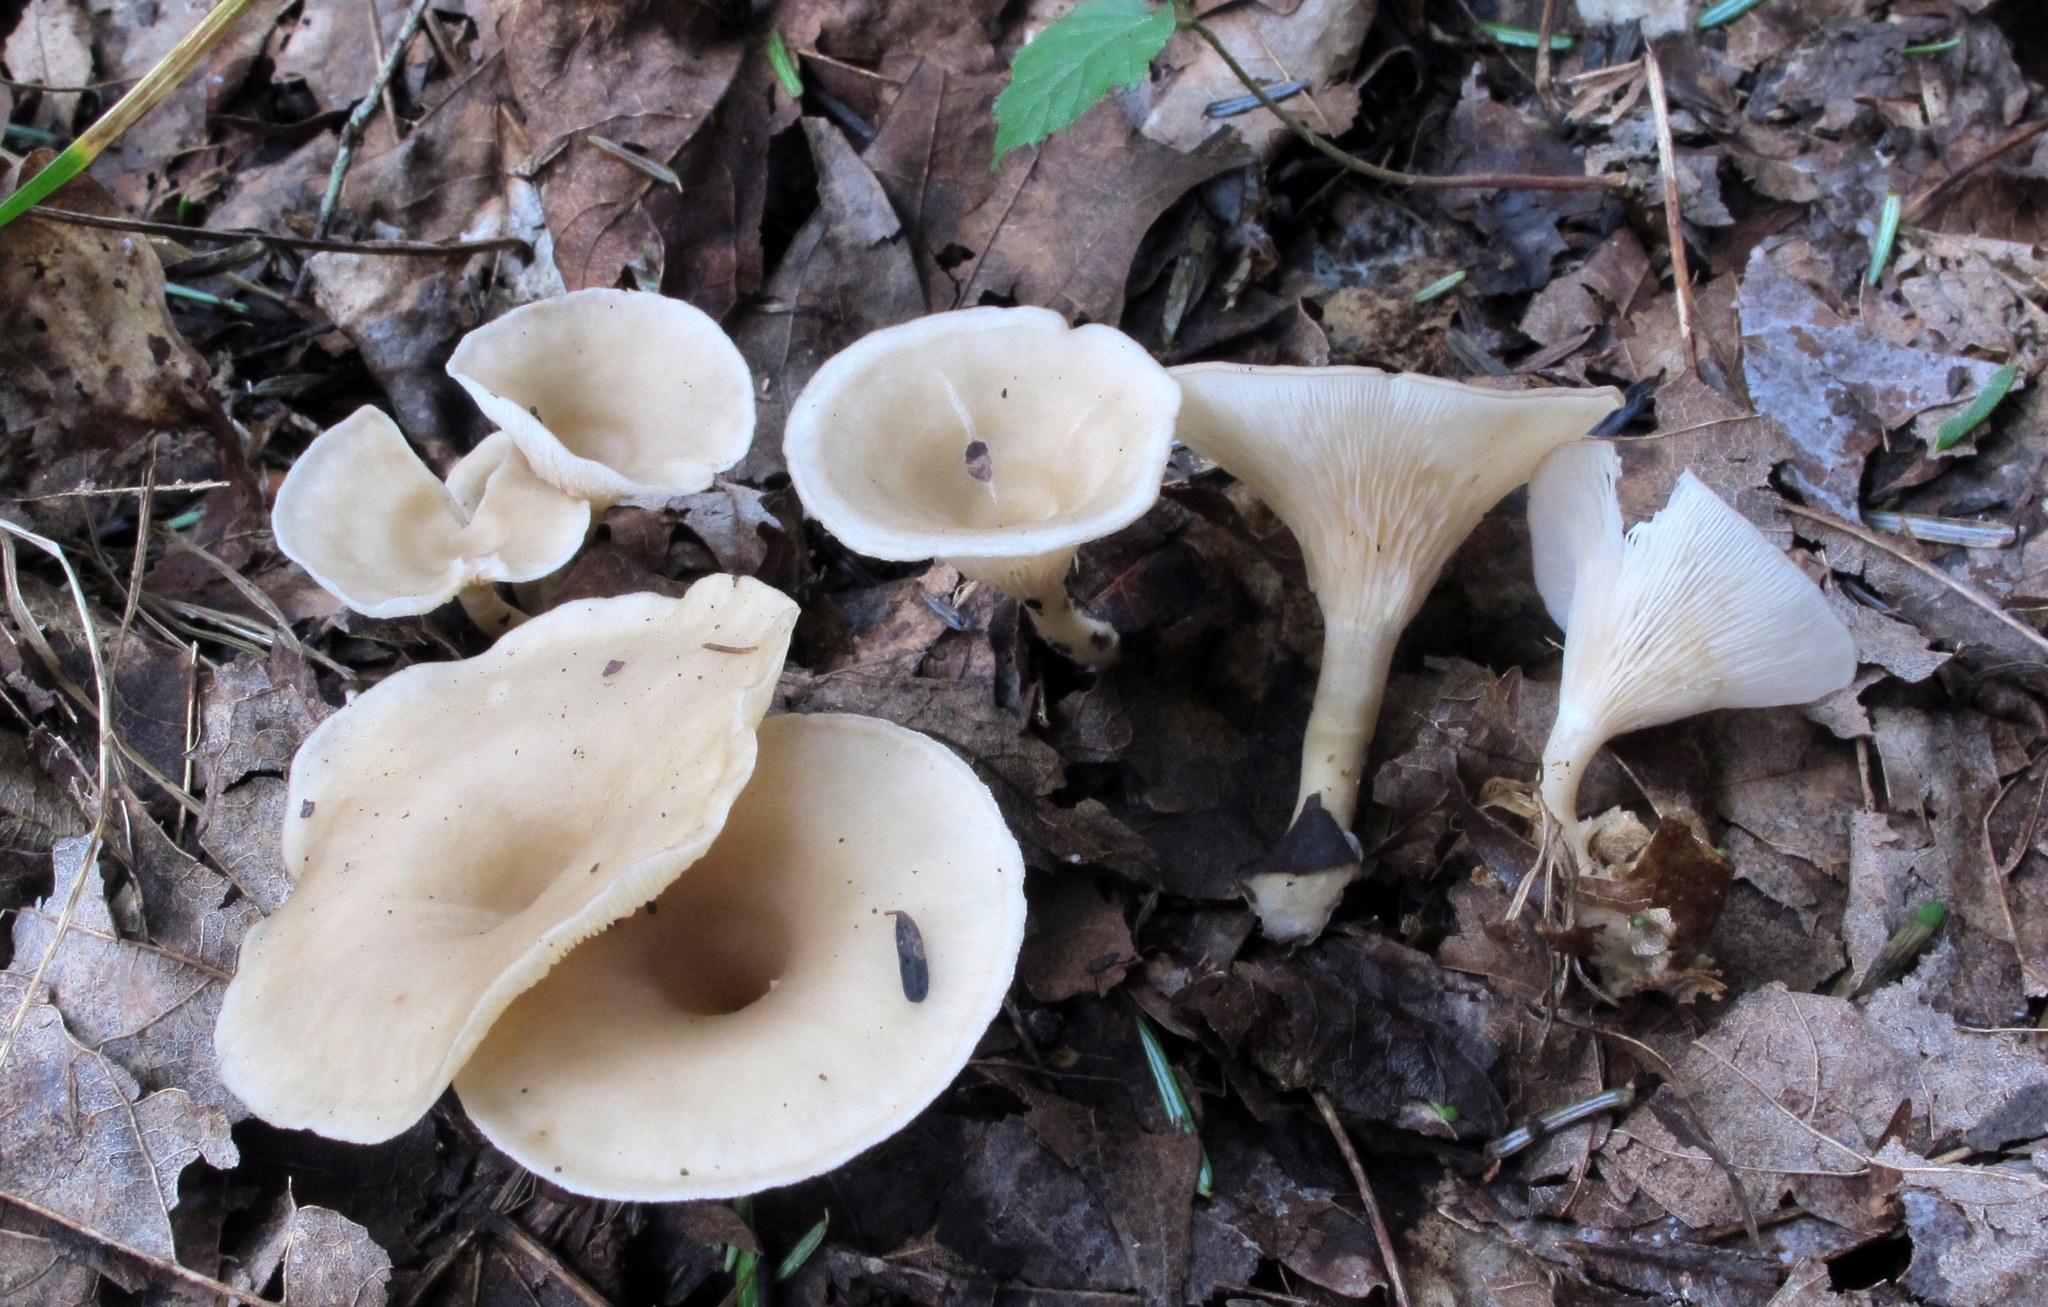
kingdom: Fungi
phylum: Basidiomycota
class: Agaricomycetes
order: Agaricales
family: Tricholomataceae
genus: Singerocybe
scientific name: Singerocybe adirondackensis
